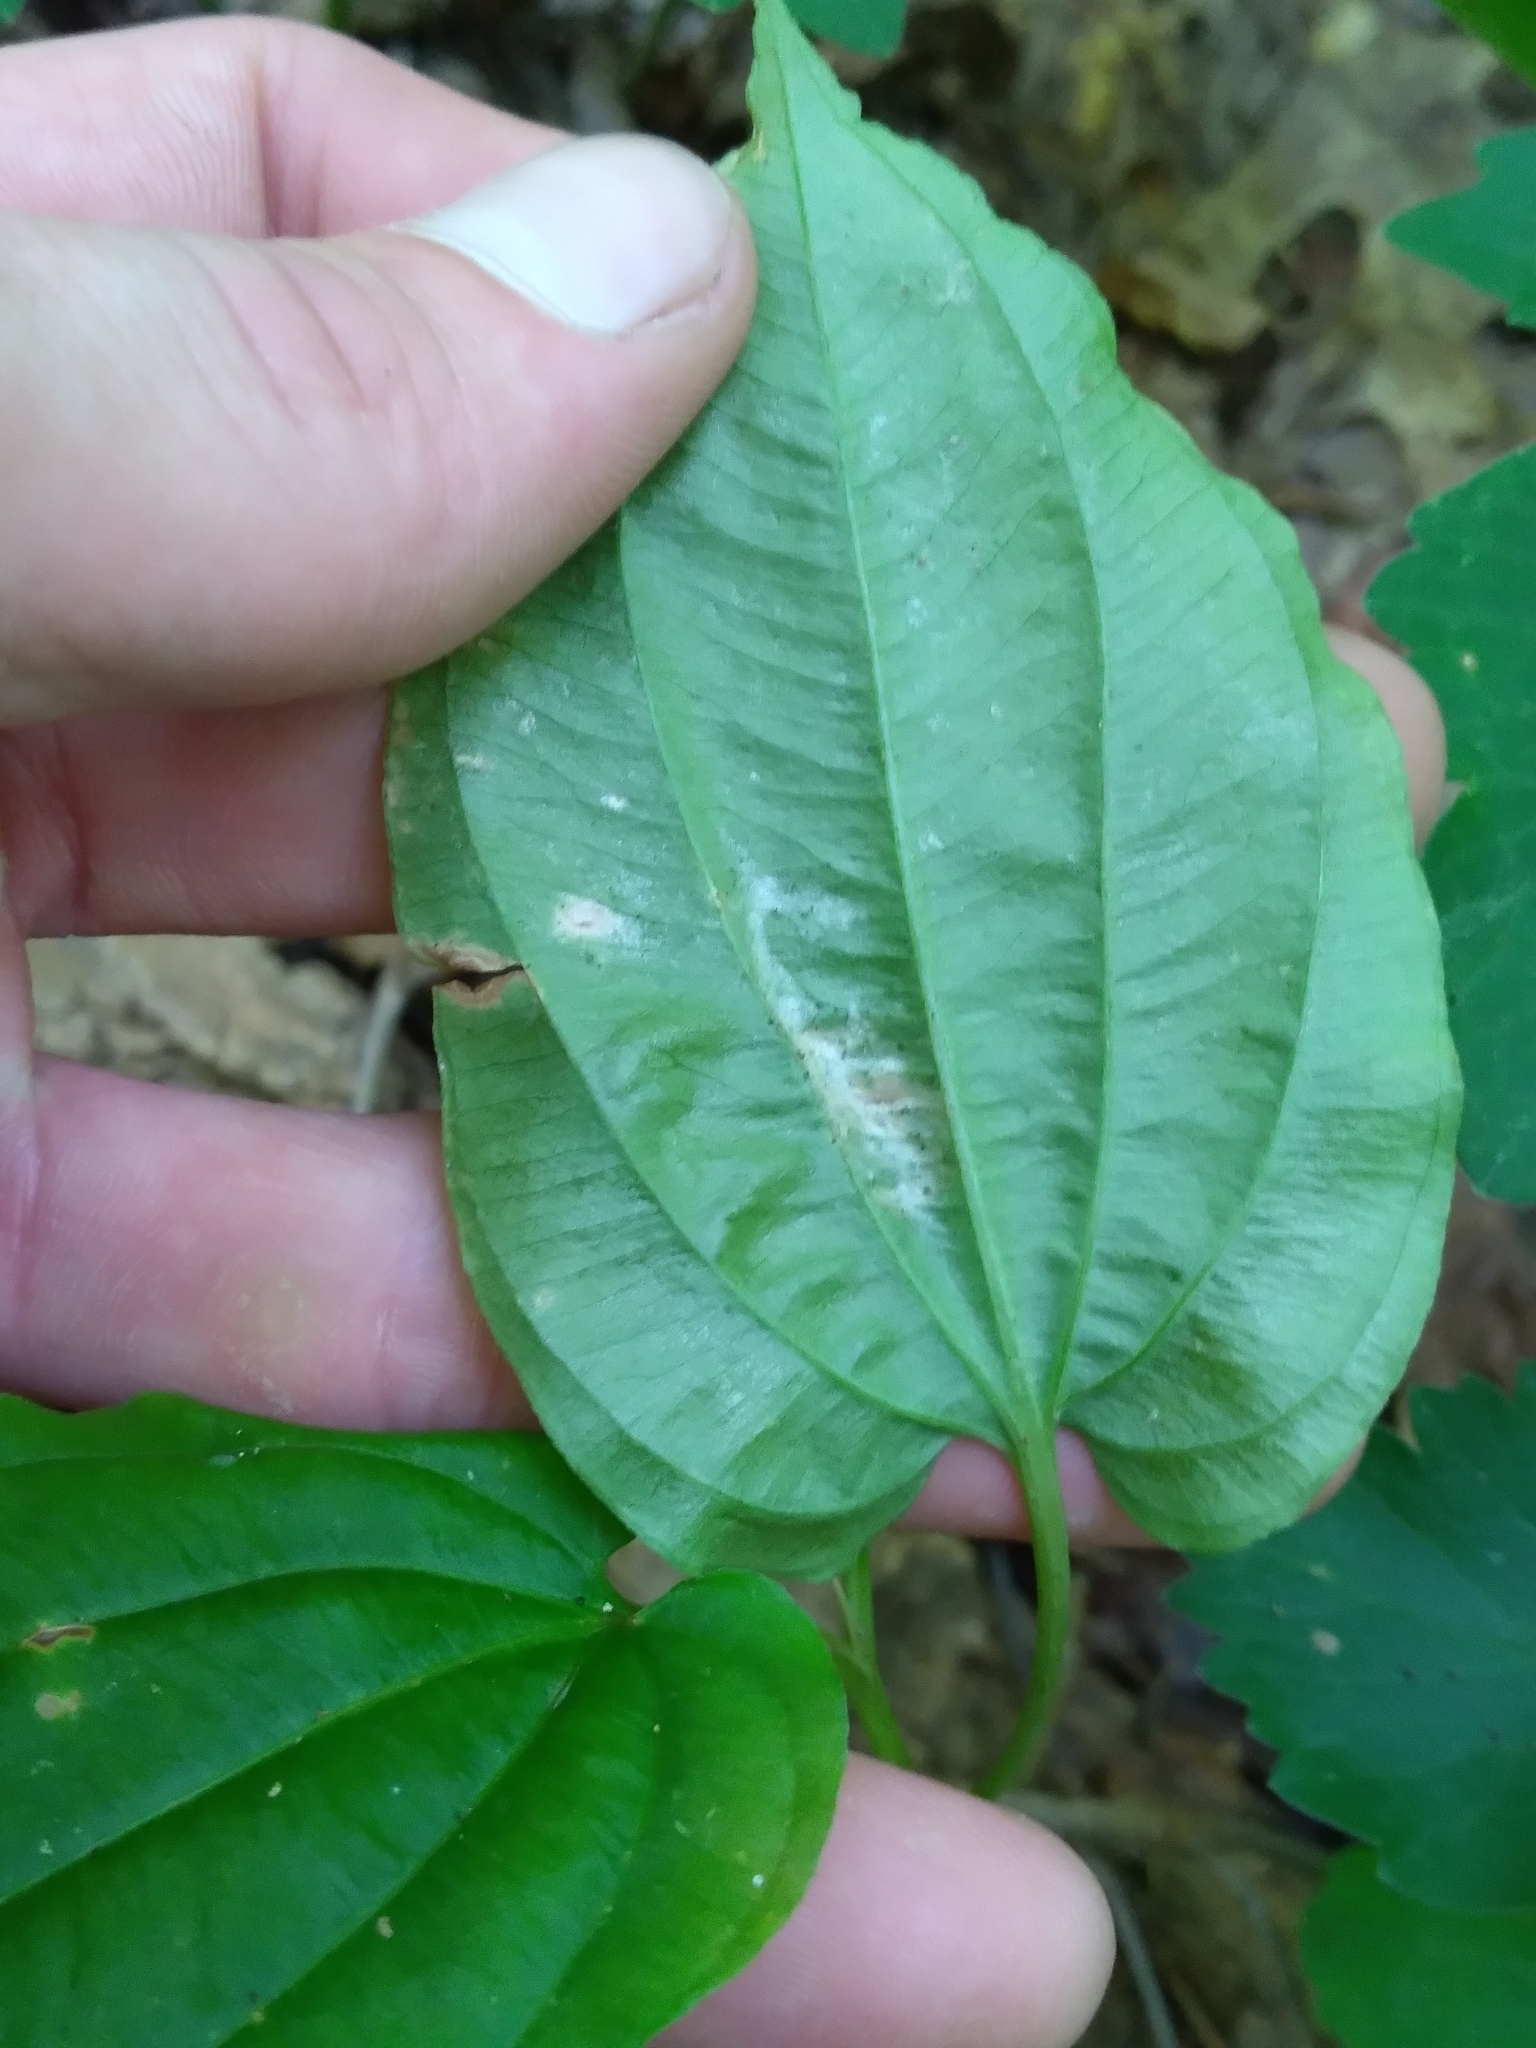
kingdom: Plantae
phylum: Tracheophyta
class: Liliopsida
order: Pandanales
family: Stemonaceae
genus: Croomia
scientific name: Croomia pauciflora
